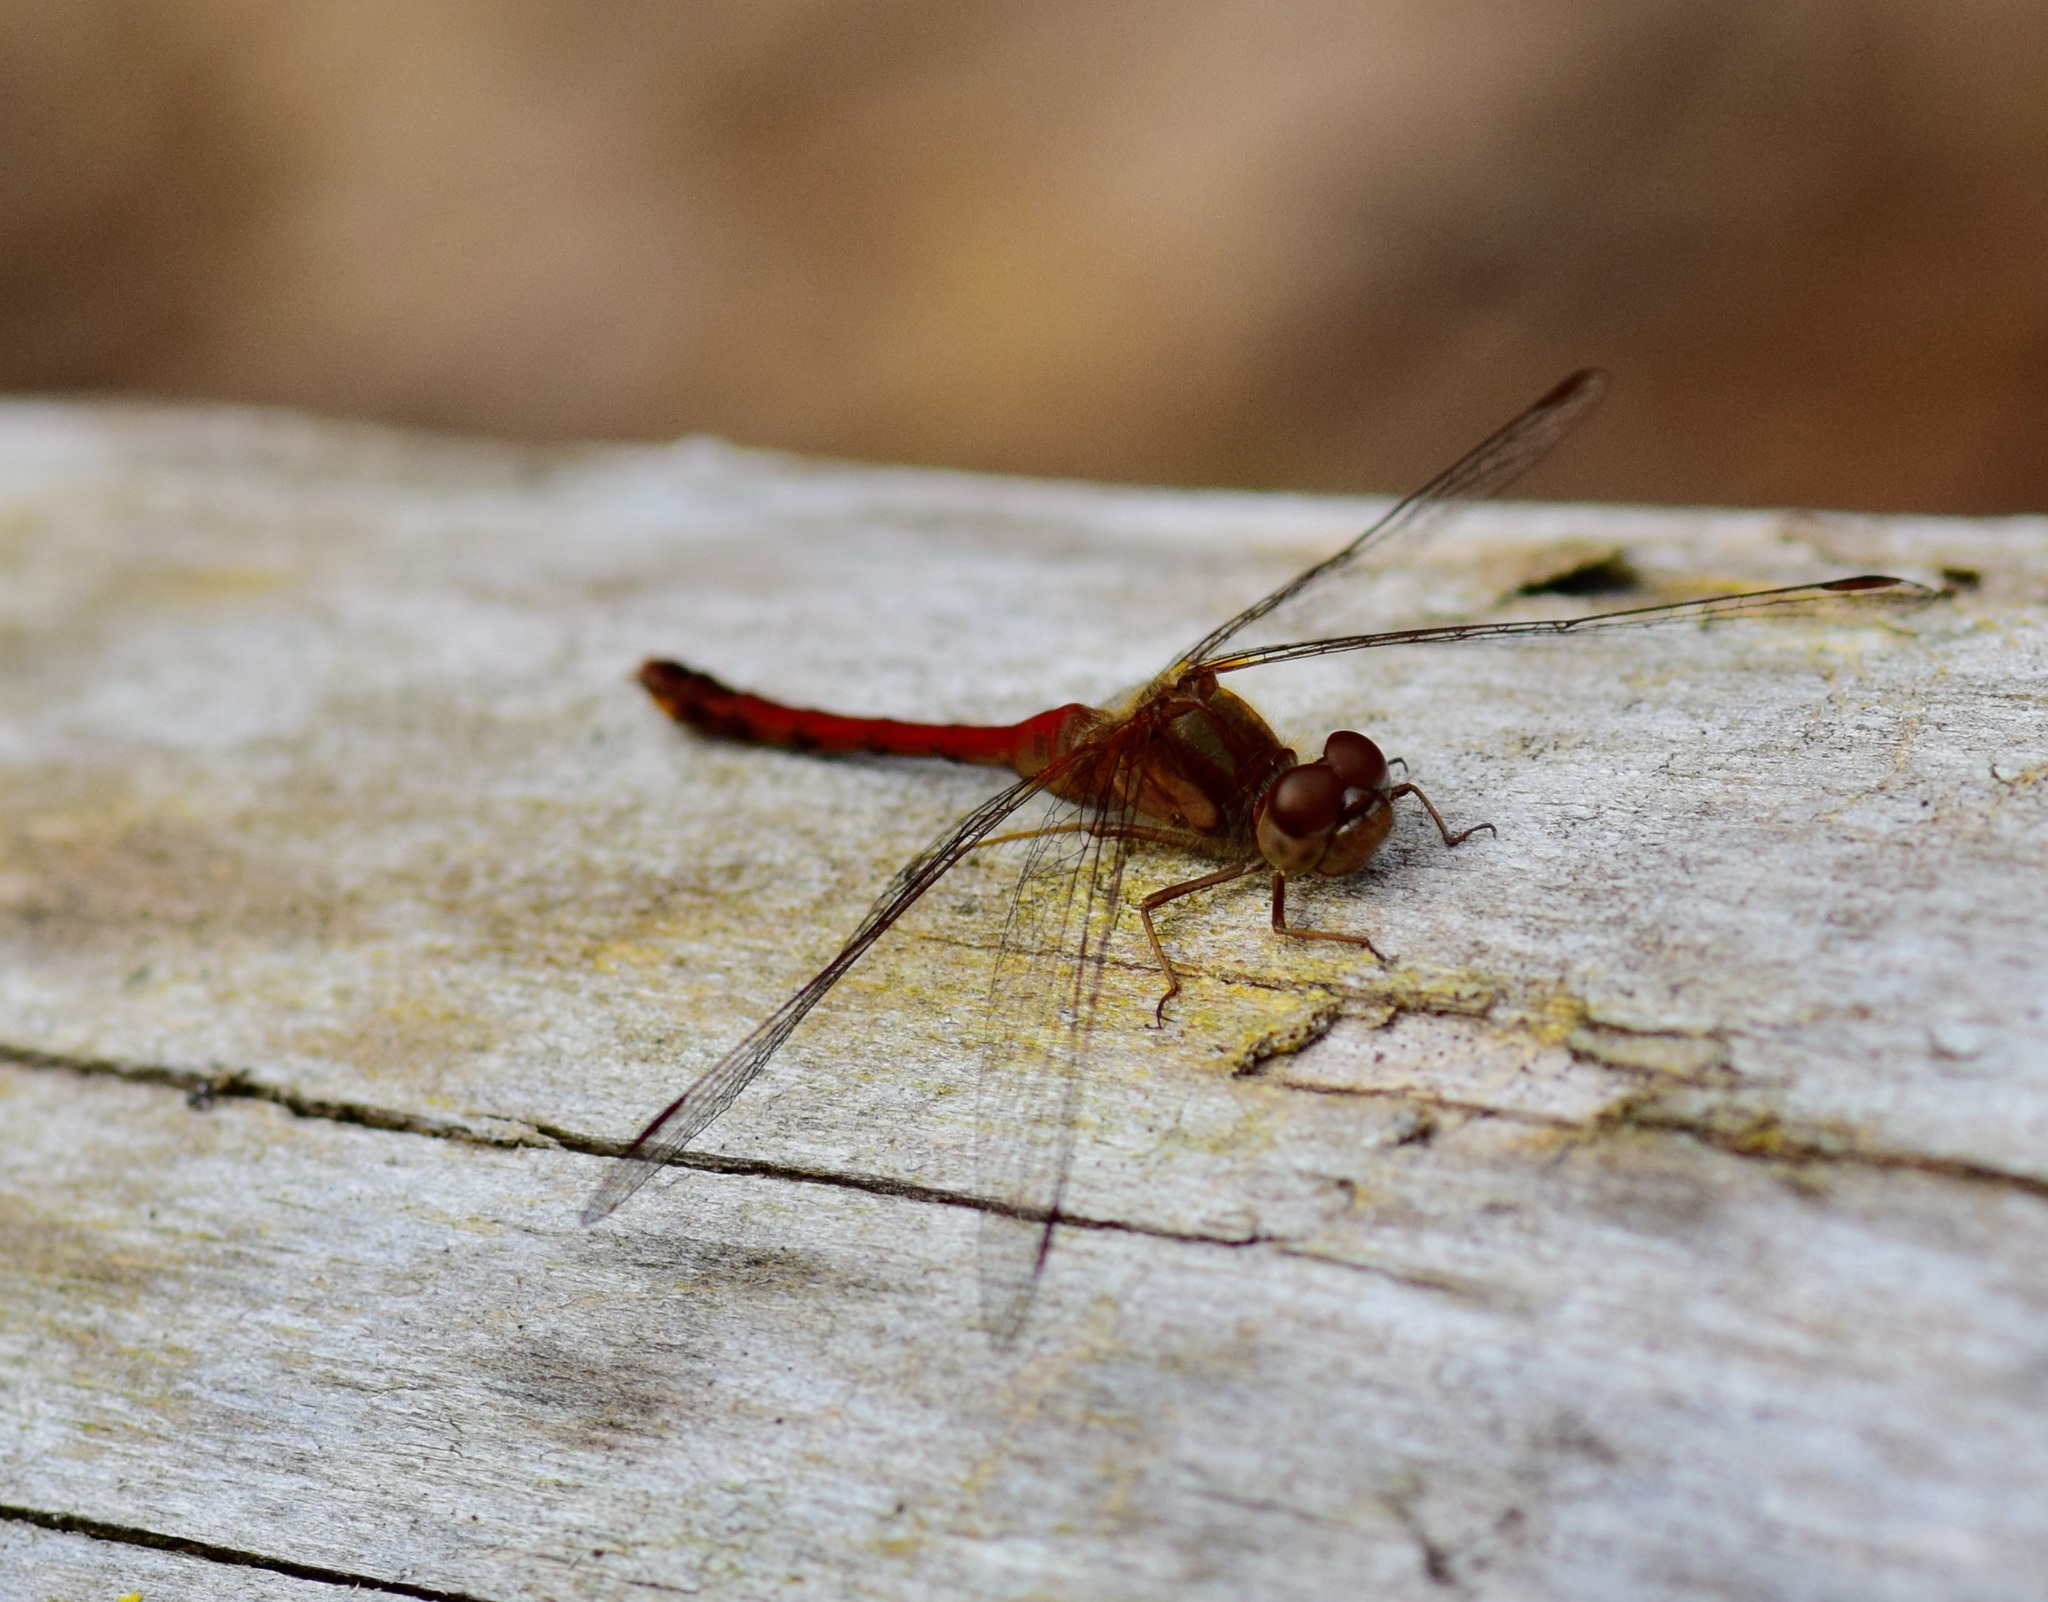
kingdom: Animalia
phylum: Arthropoda
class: Insecta
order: Odonata
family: Libellulidae
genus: Sympetrum
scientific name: Sympetrum vicinum
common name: Autumn meadowhawk
